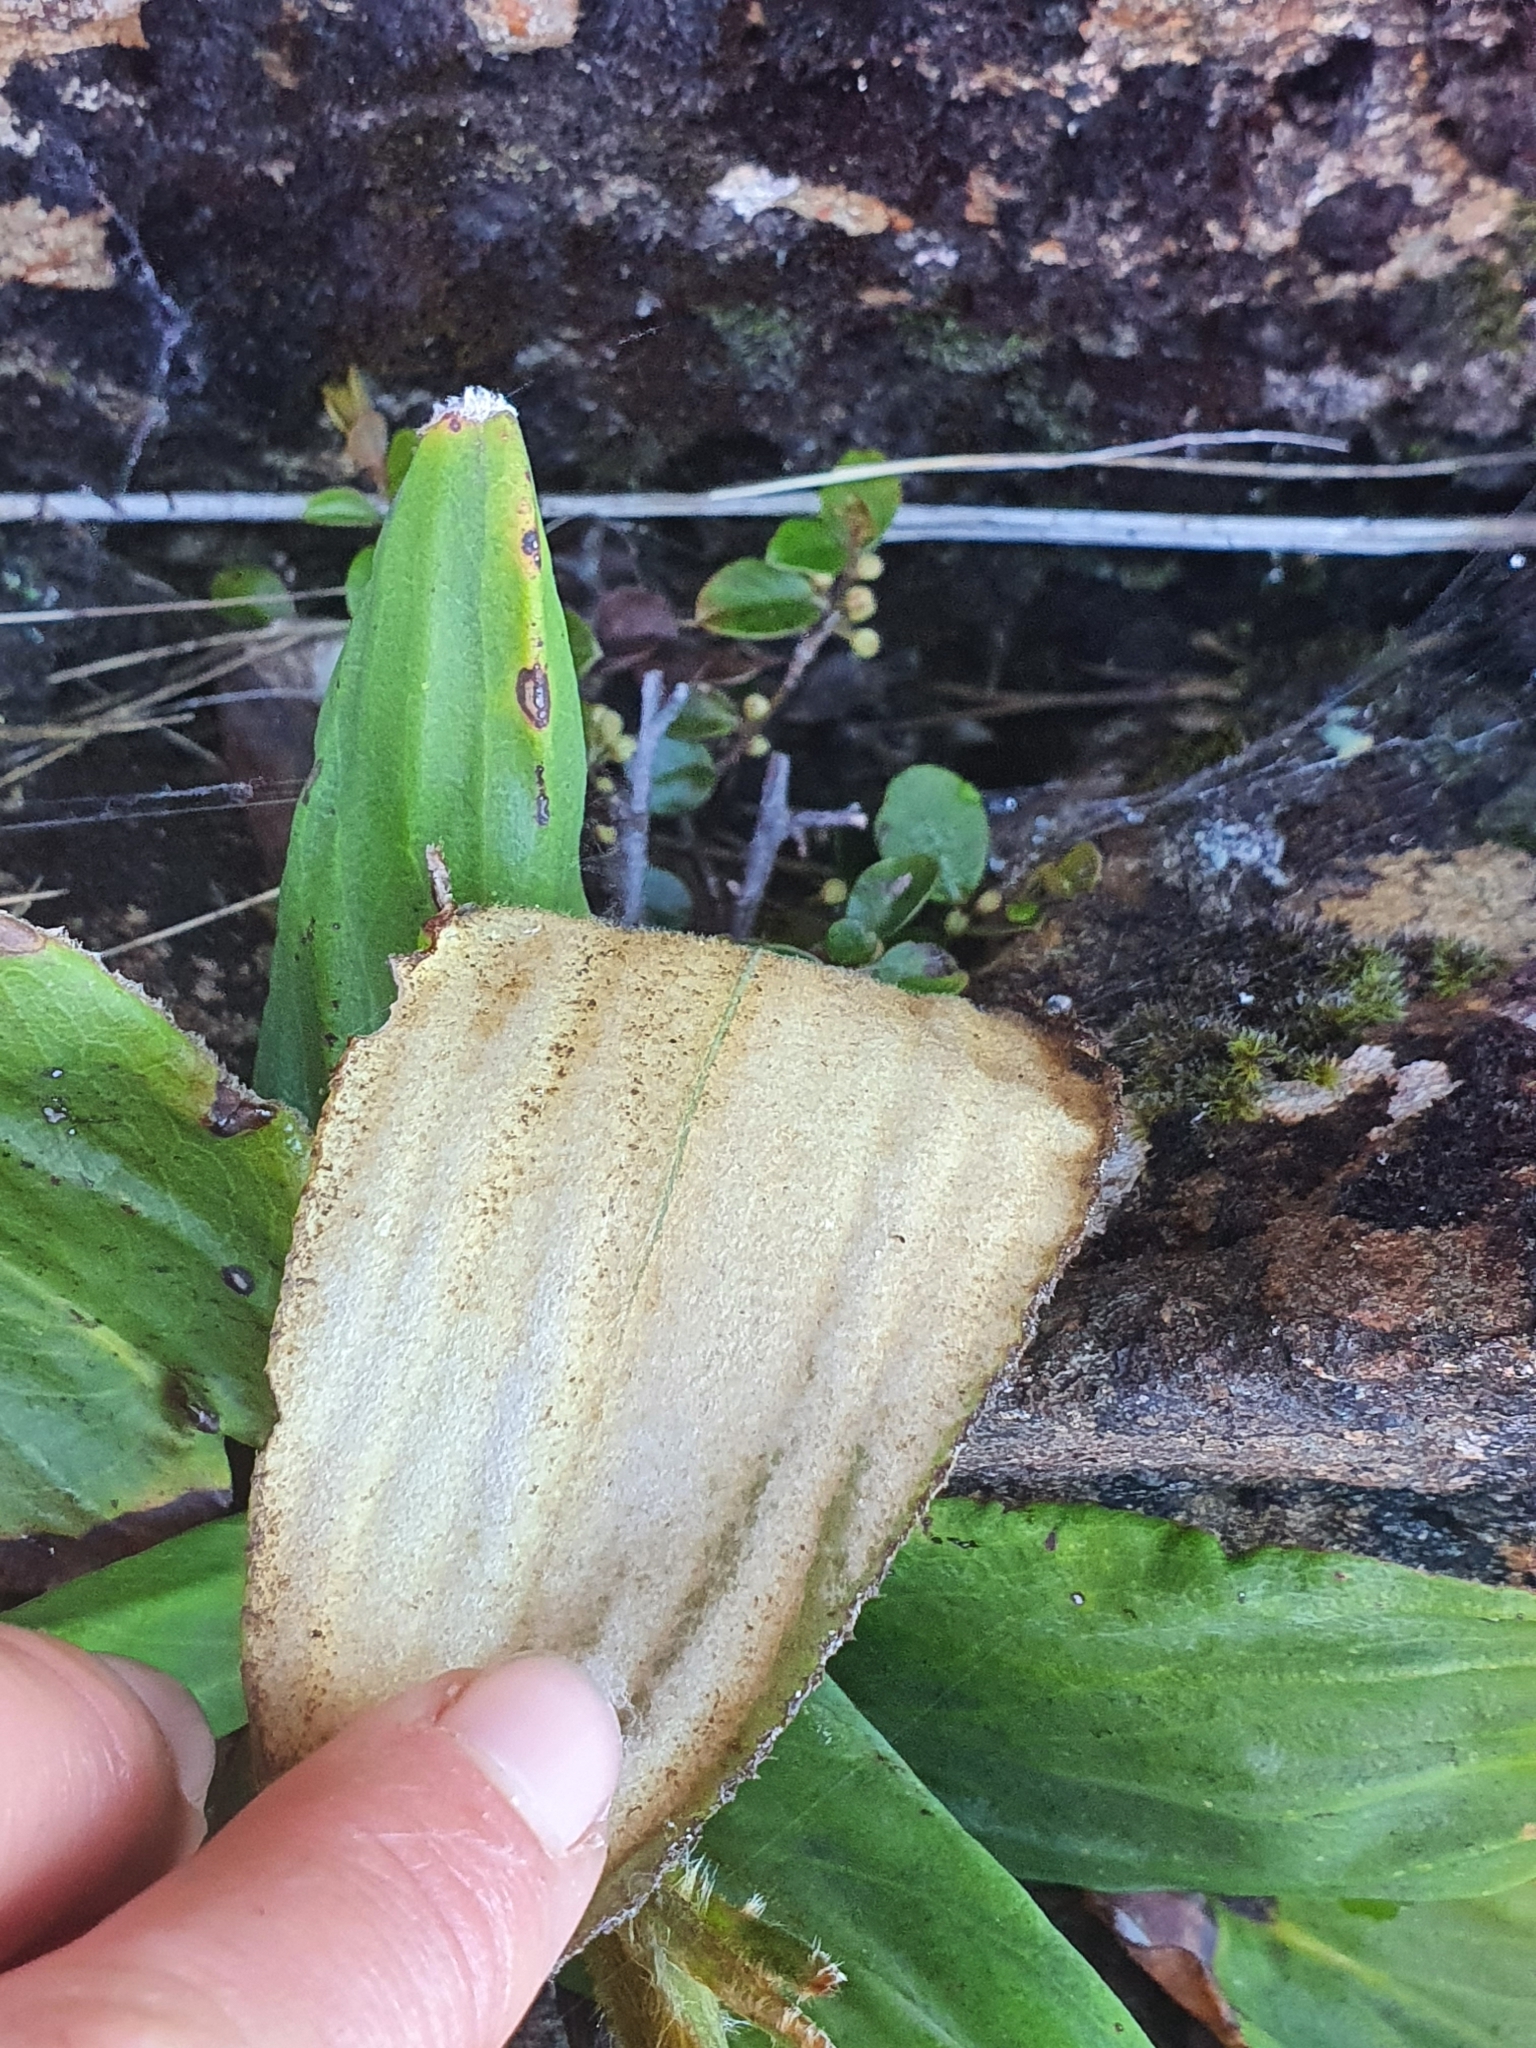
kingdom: Plantae
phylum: Tracheophyta
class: Magnoliopsida
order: Asterales
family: Asteraceae
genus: Celmisia
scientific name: Celmisia cordatifolia
